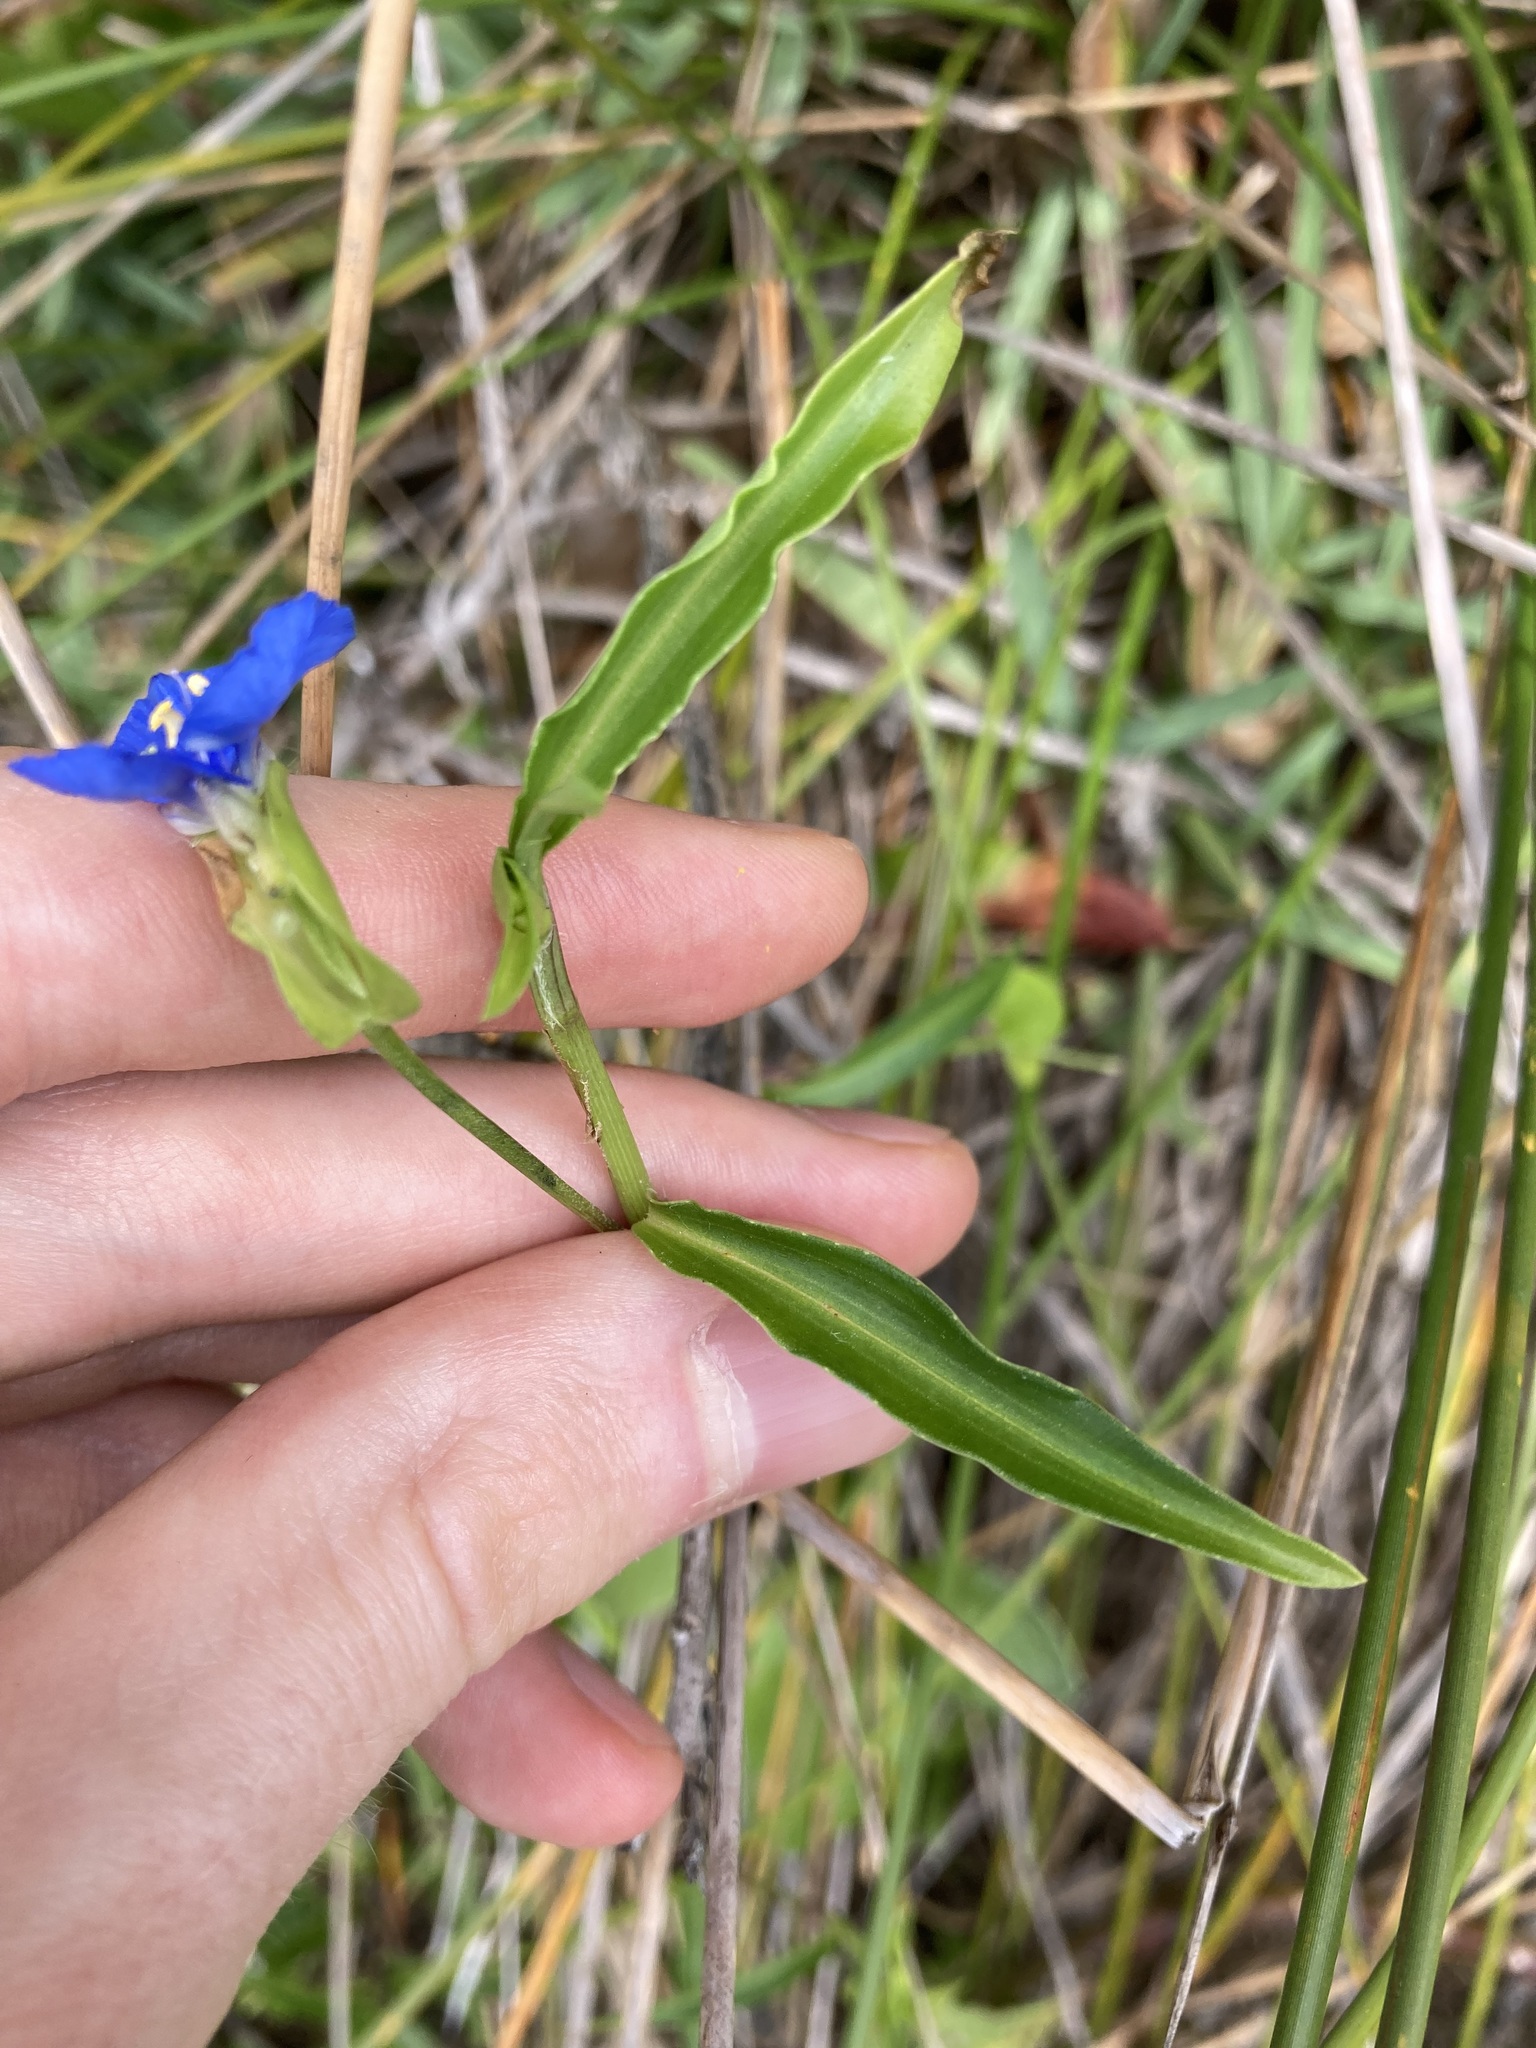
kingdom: Plantae
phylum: Tracheophyta
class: Liliopsida
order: Commelinales
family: Commelinaceae
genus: Commelina
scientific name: Commelina cyanea
